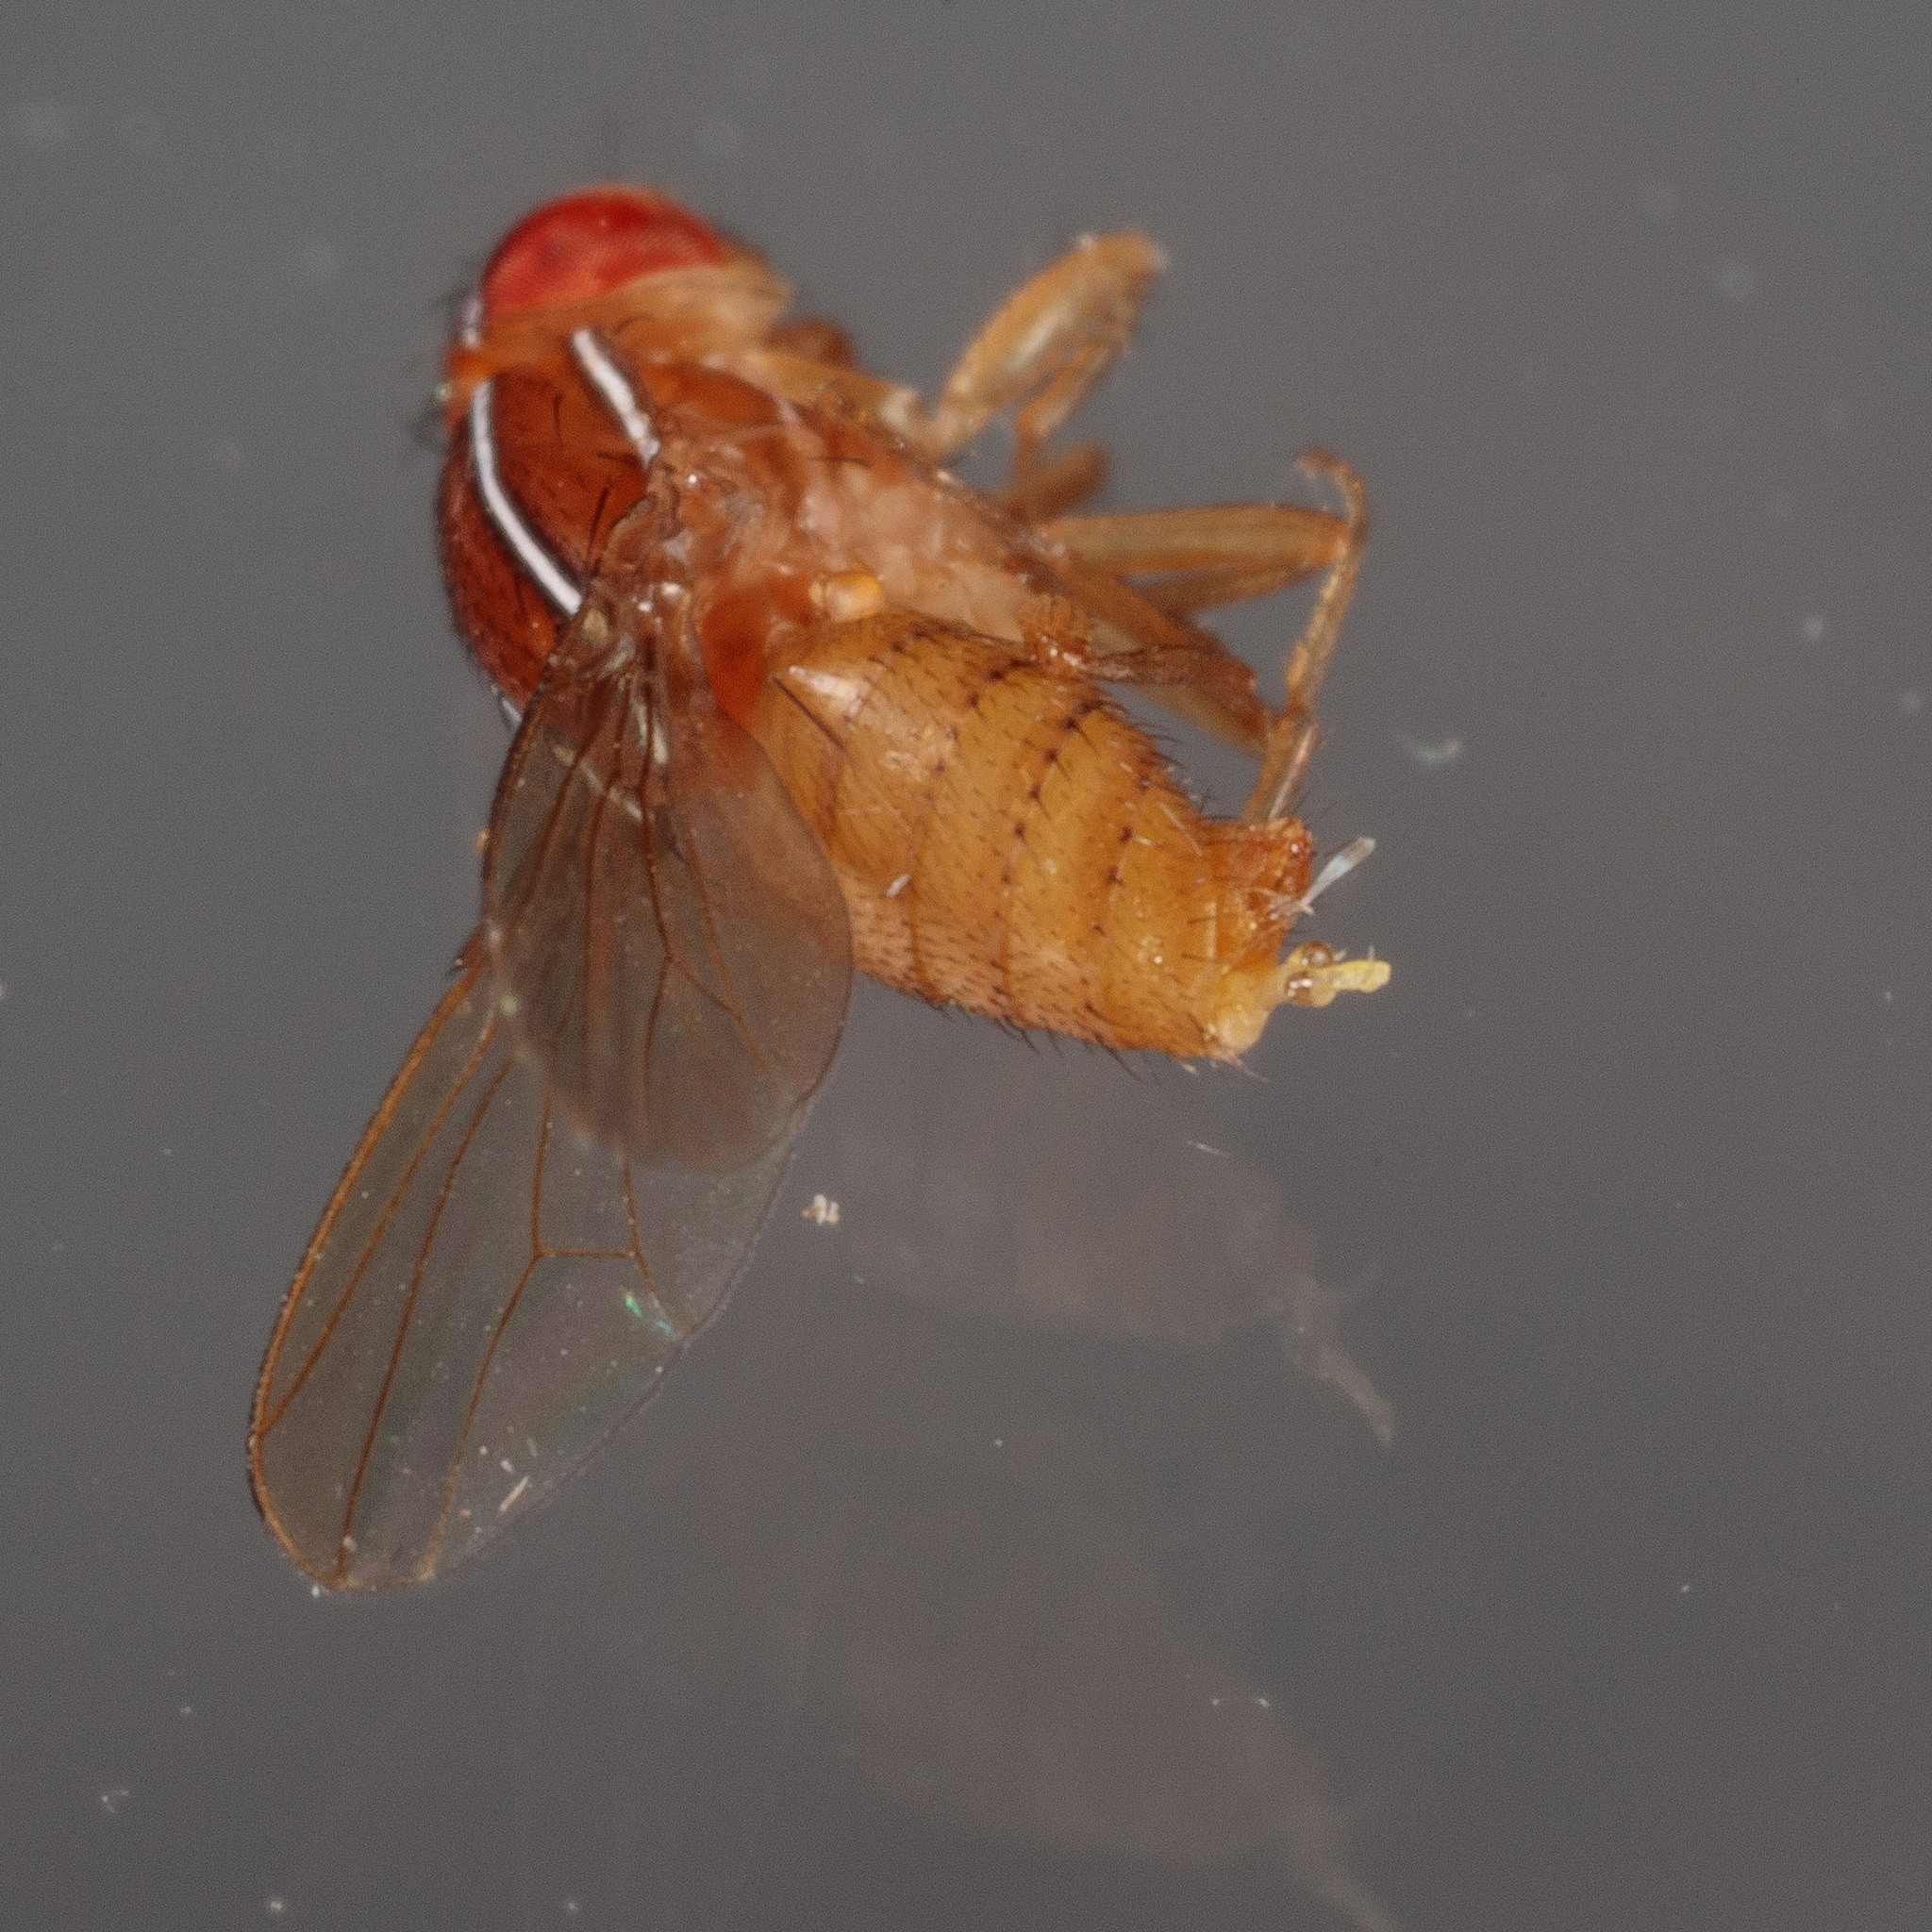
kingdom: Animalia
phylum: Arthropoda
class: Insecta
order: Diptera
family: Drosophilidae
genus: Zaprionus
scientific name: Zaprionus indianus
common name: African fig fly
